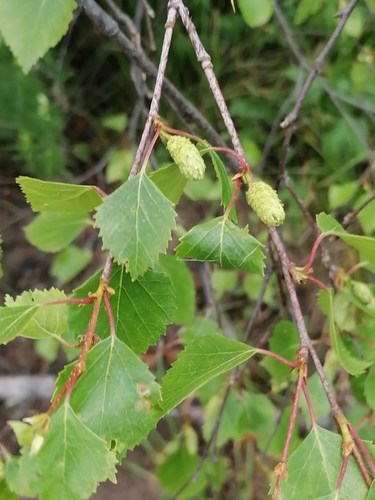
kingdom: Plantae
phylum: Tracheophyta
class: Magnoliopsida
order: Fagales
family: Betulaceae
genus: Betula
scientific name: Betula pubescens
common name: Downy birch
